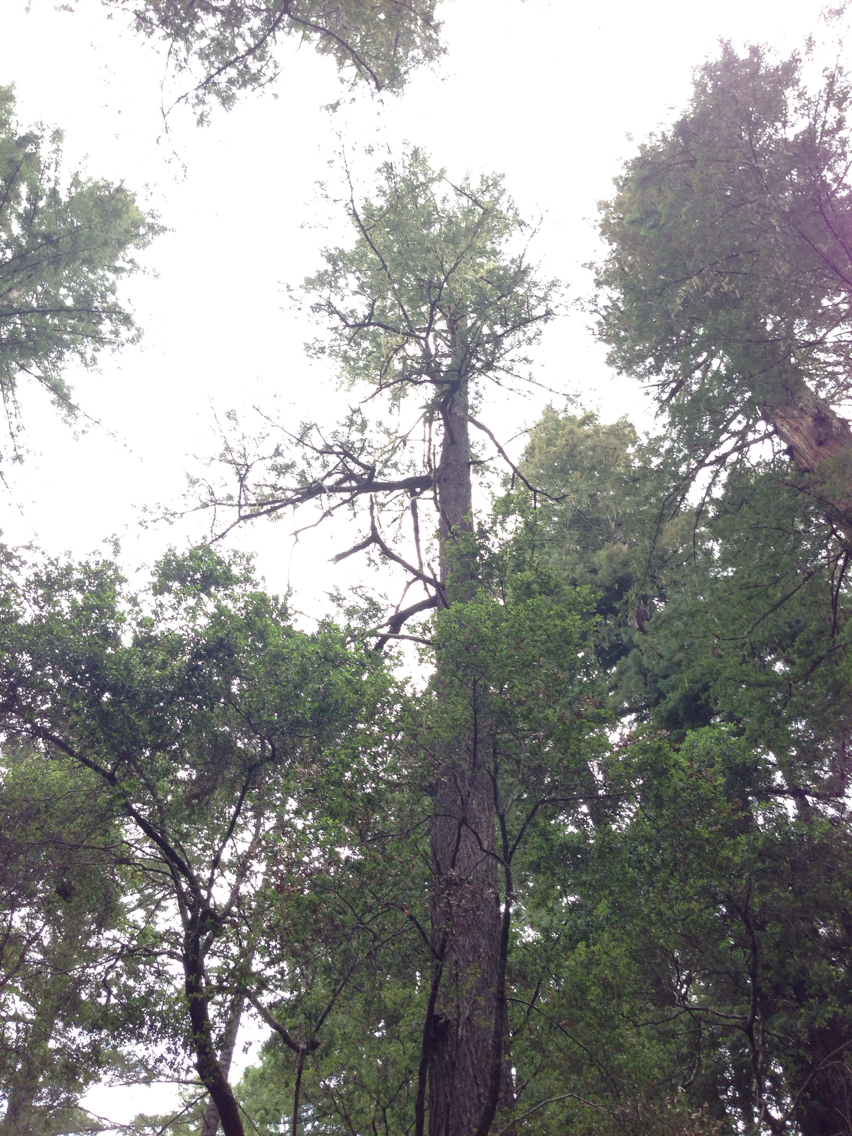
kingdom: Plantae
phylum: Tracheophyta
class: Pinopsida
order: Pinales
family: Pinaceae
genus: Pseudotsuga
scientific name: Pseudotsuga menziesii
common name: Douglas fir
